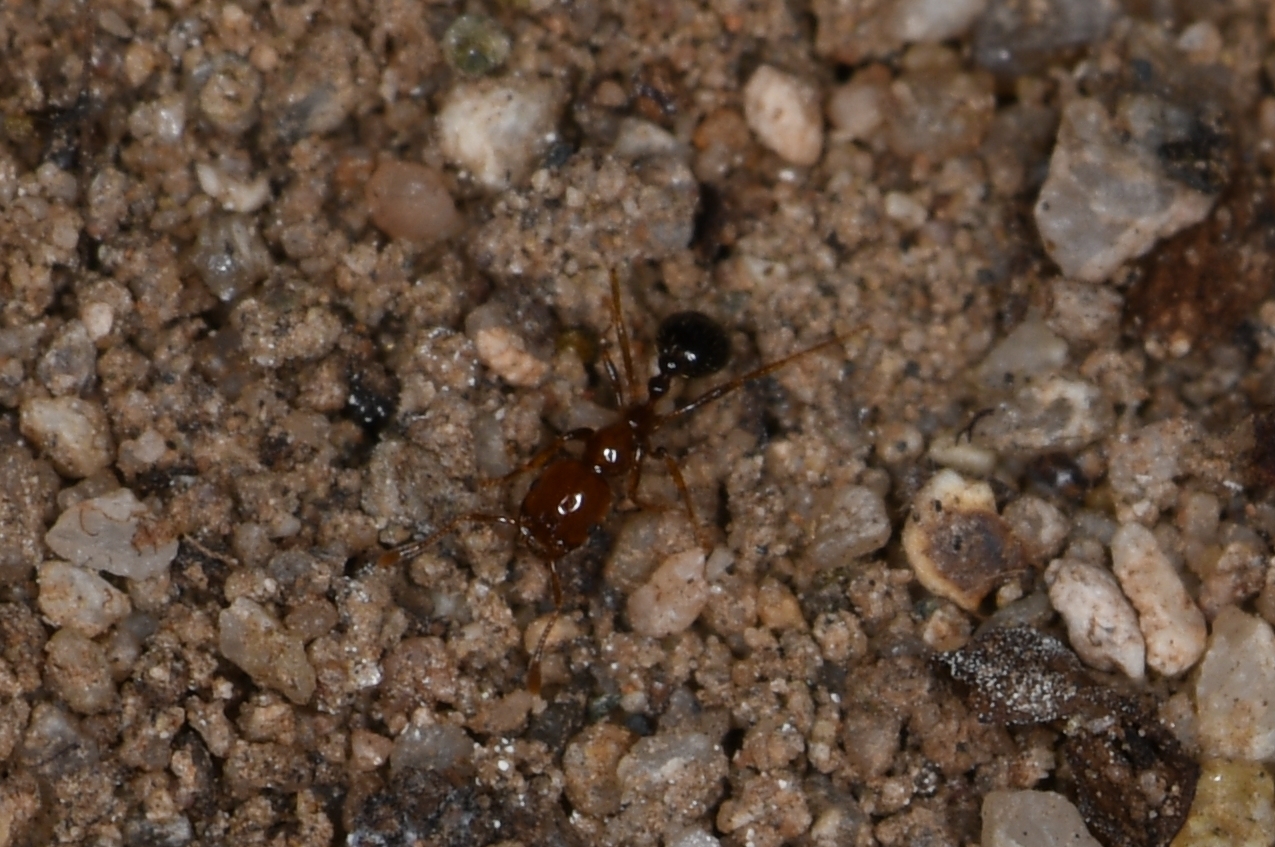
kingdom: Animalia
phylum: Arthropoda
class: Insecta
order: Hymenoptera
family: Formicidae
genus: Solenopsis
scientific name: Solenopsis xyloni
